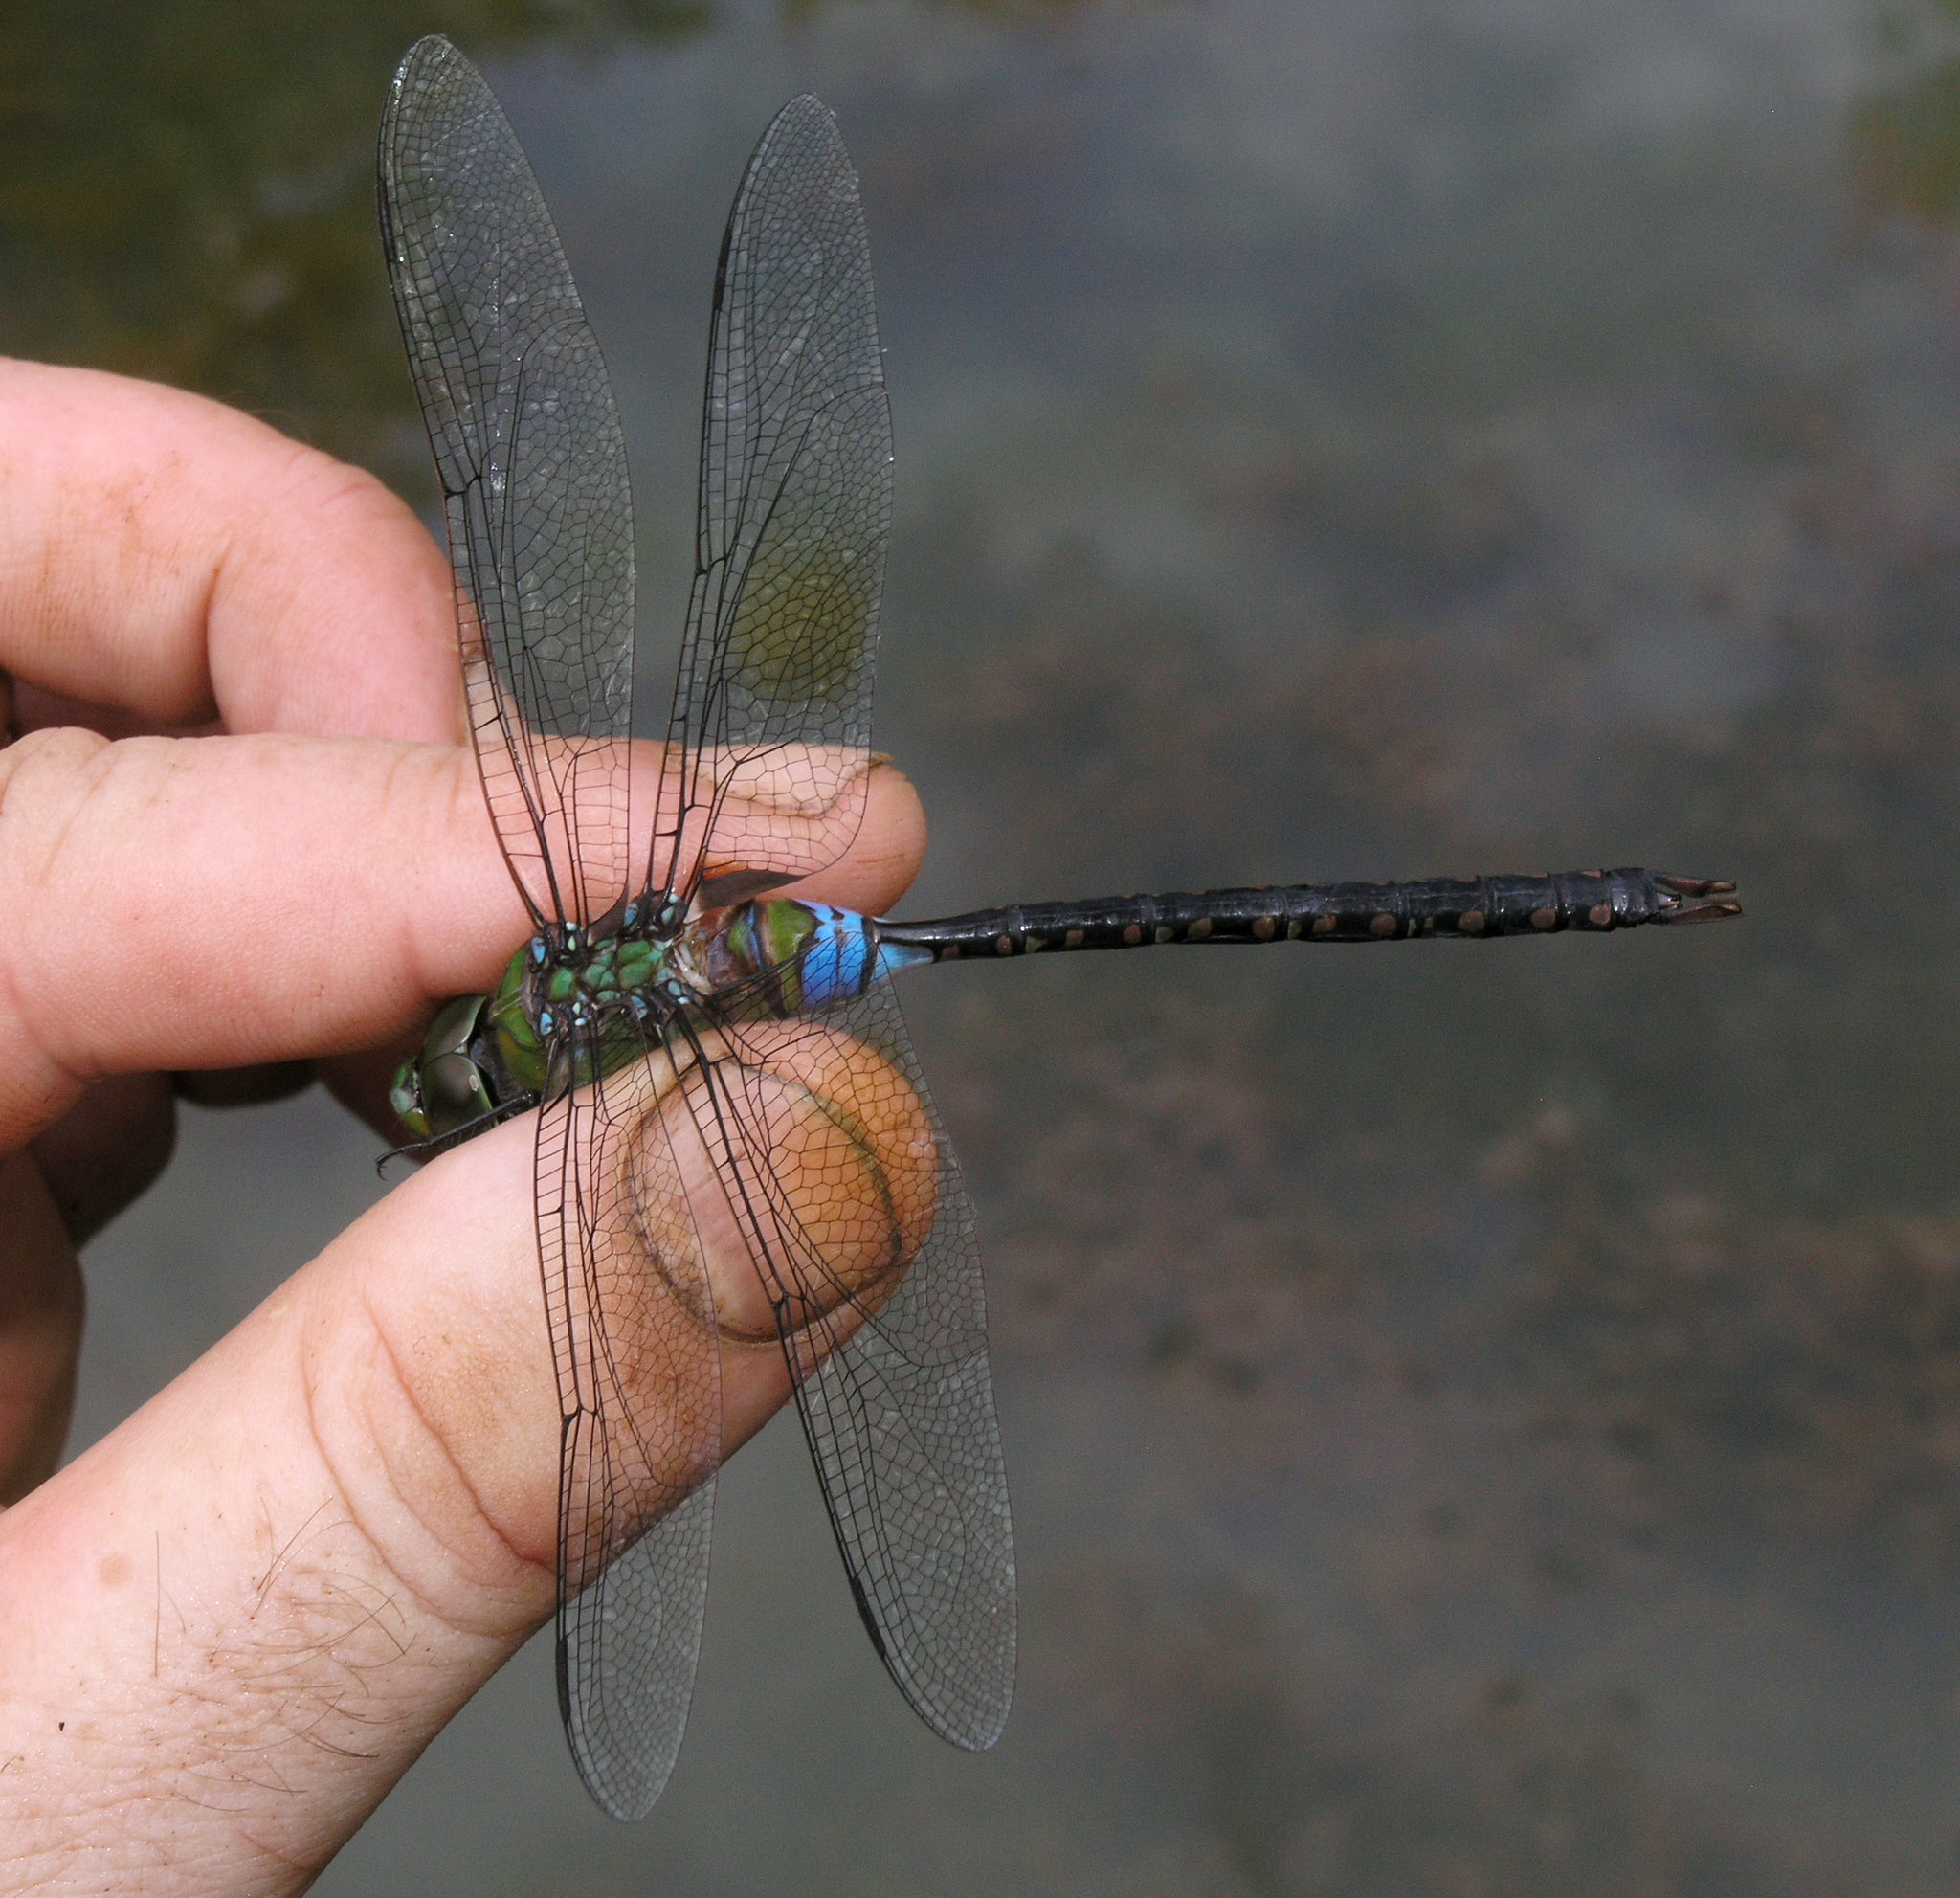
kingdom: Animalia
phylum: Arthropoda
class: Insecta
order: Odonata
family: Aeshnidae
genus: Anax
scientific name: Anax guttatus
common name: Emperor
